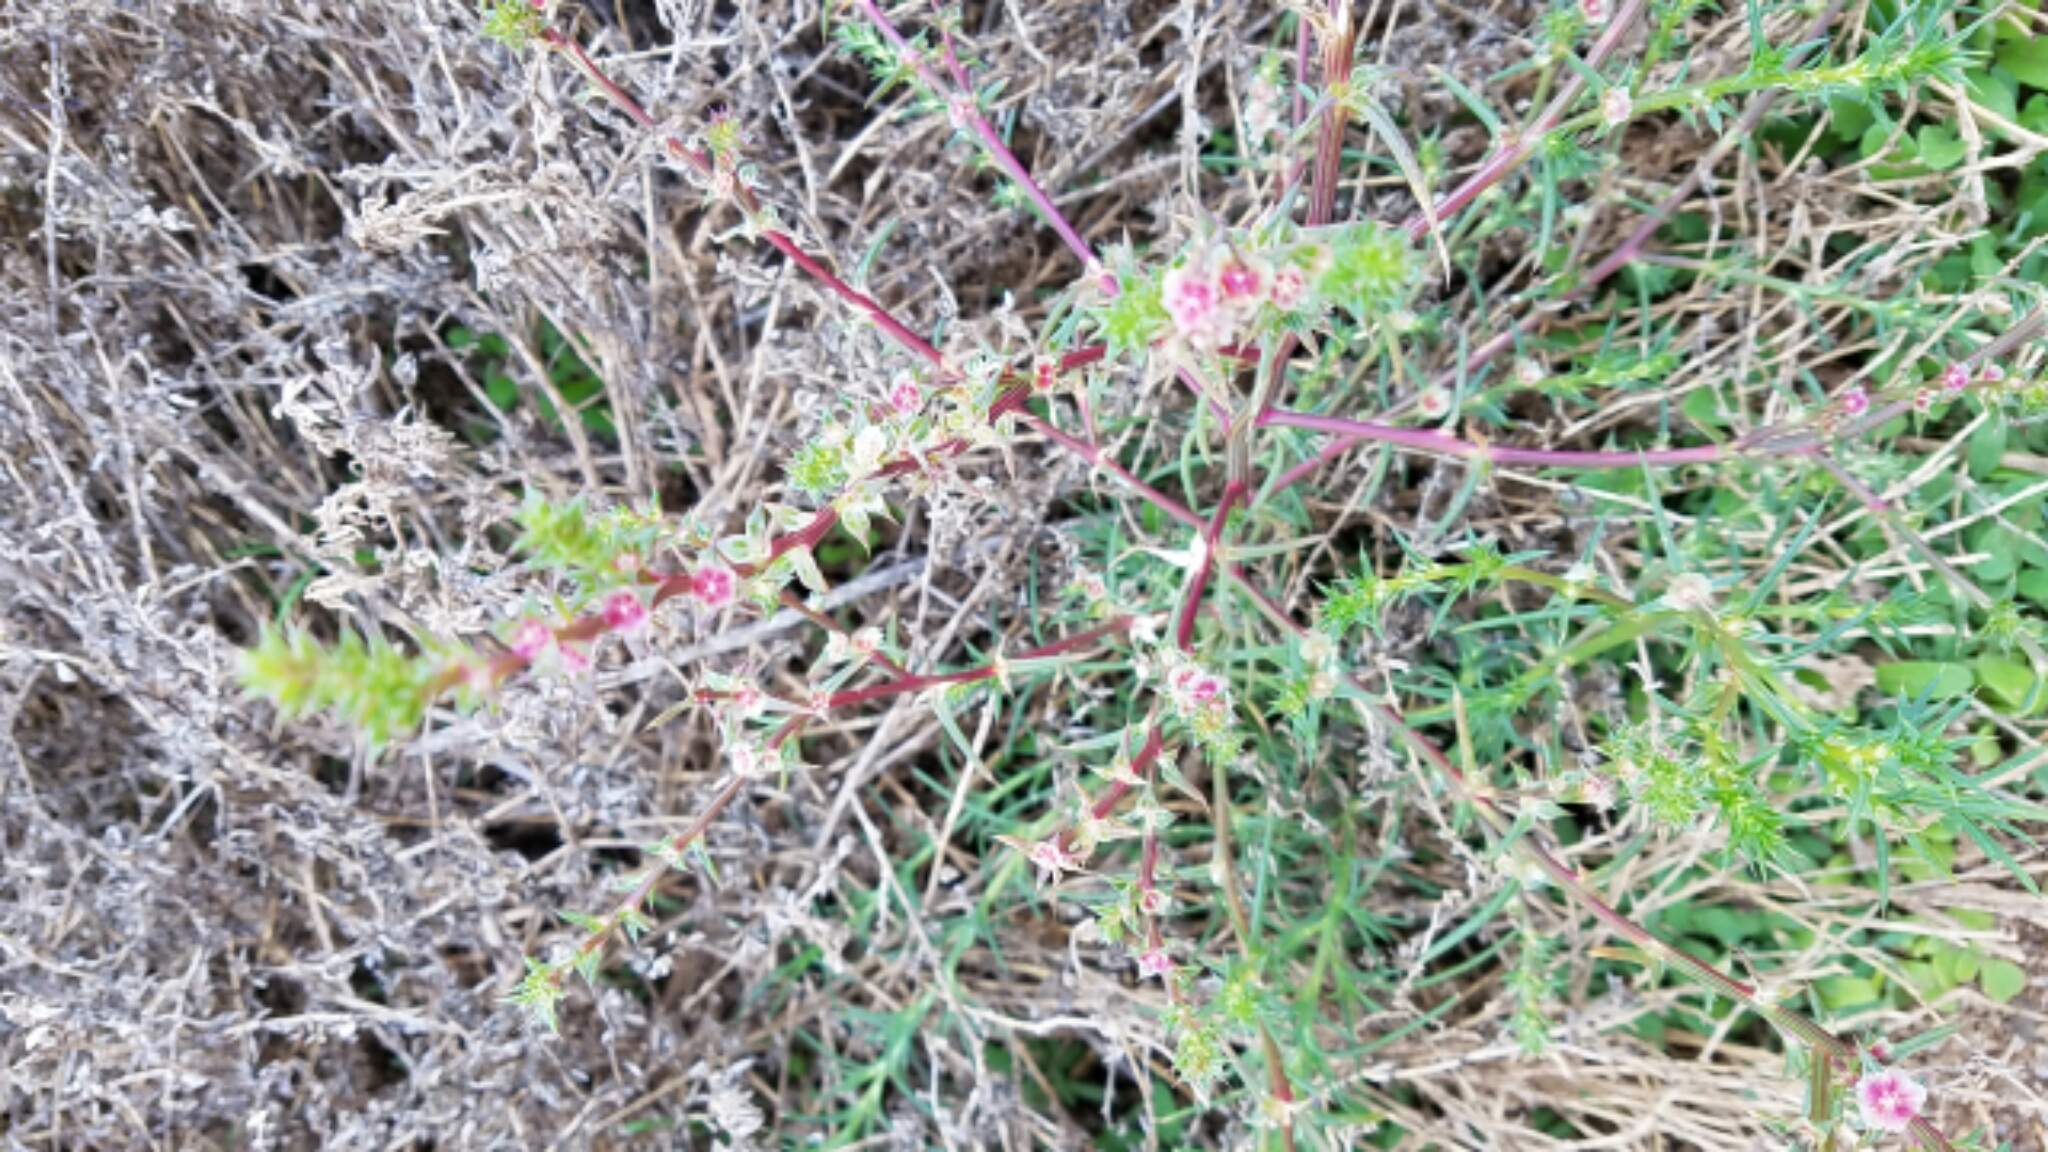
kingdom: Plantae
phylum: Tracheophyta
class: Magnoliopsida
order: Caryophyllales
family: Amaranthaceae
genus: Salsola
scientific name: Salsola
